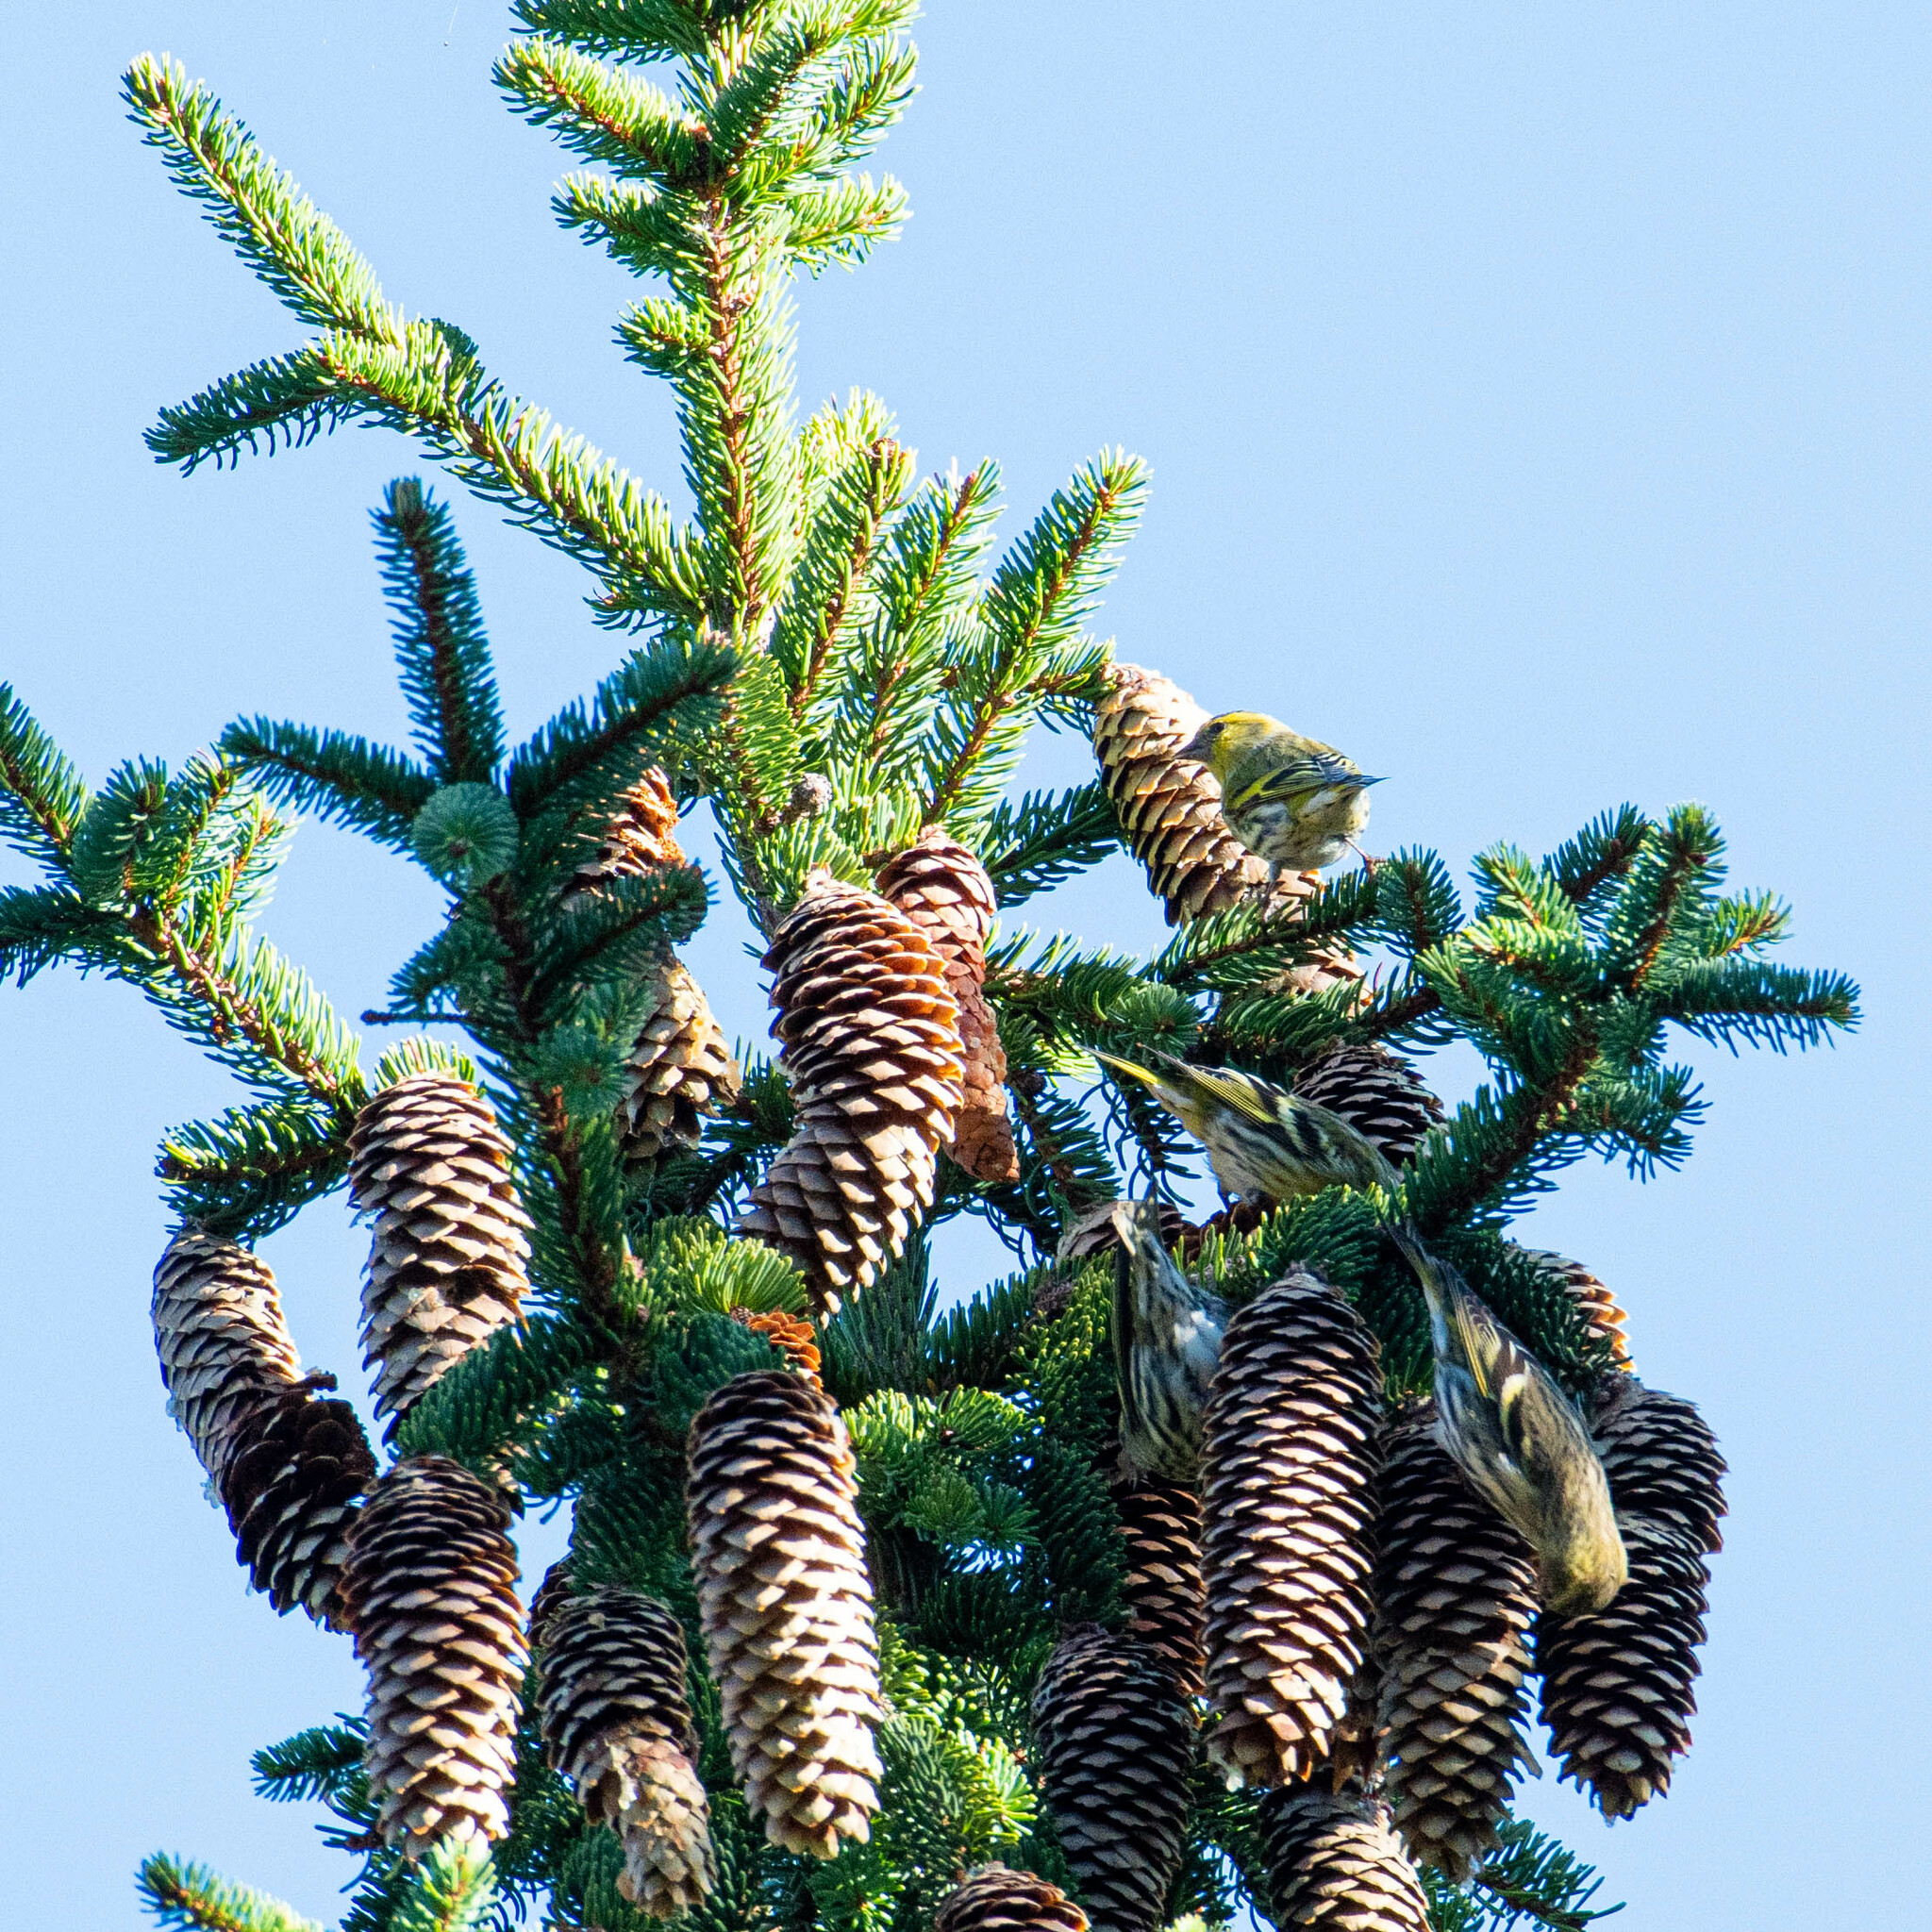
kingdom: Animalia
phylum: Chordata
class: Aves
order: Passeriformes
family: Fringillidae
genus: Spinus
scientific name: Spinus spinus
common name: Eurasian siskin
